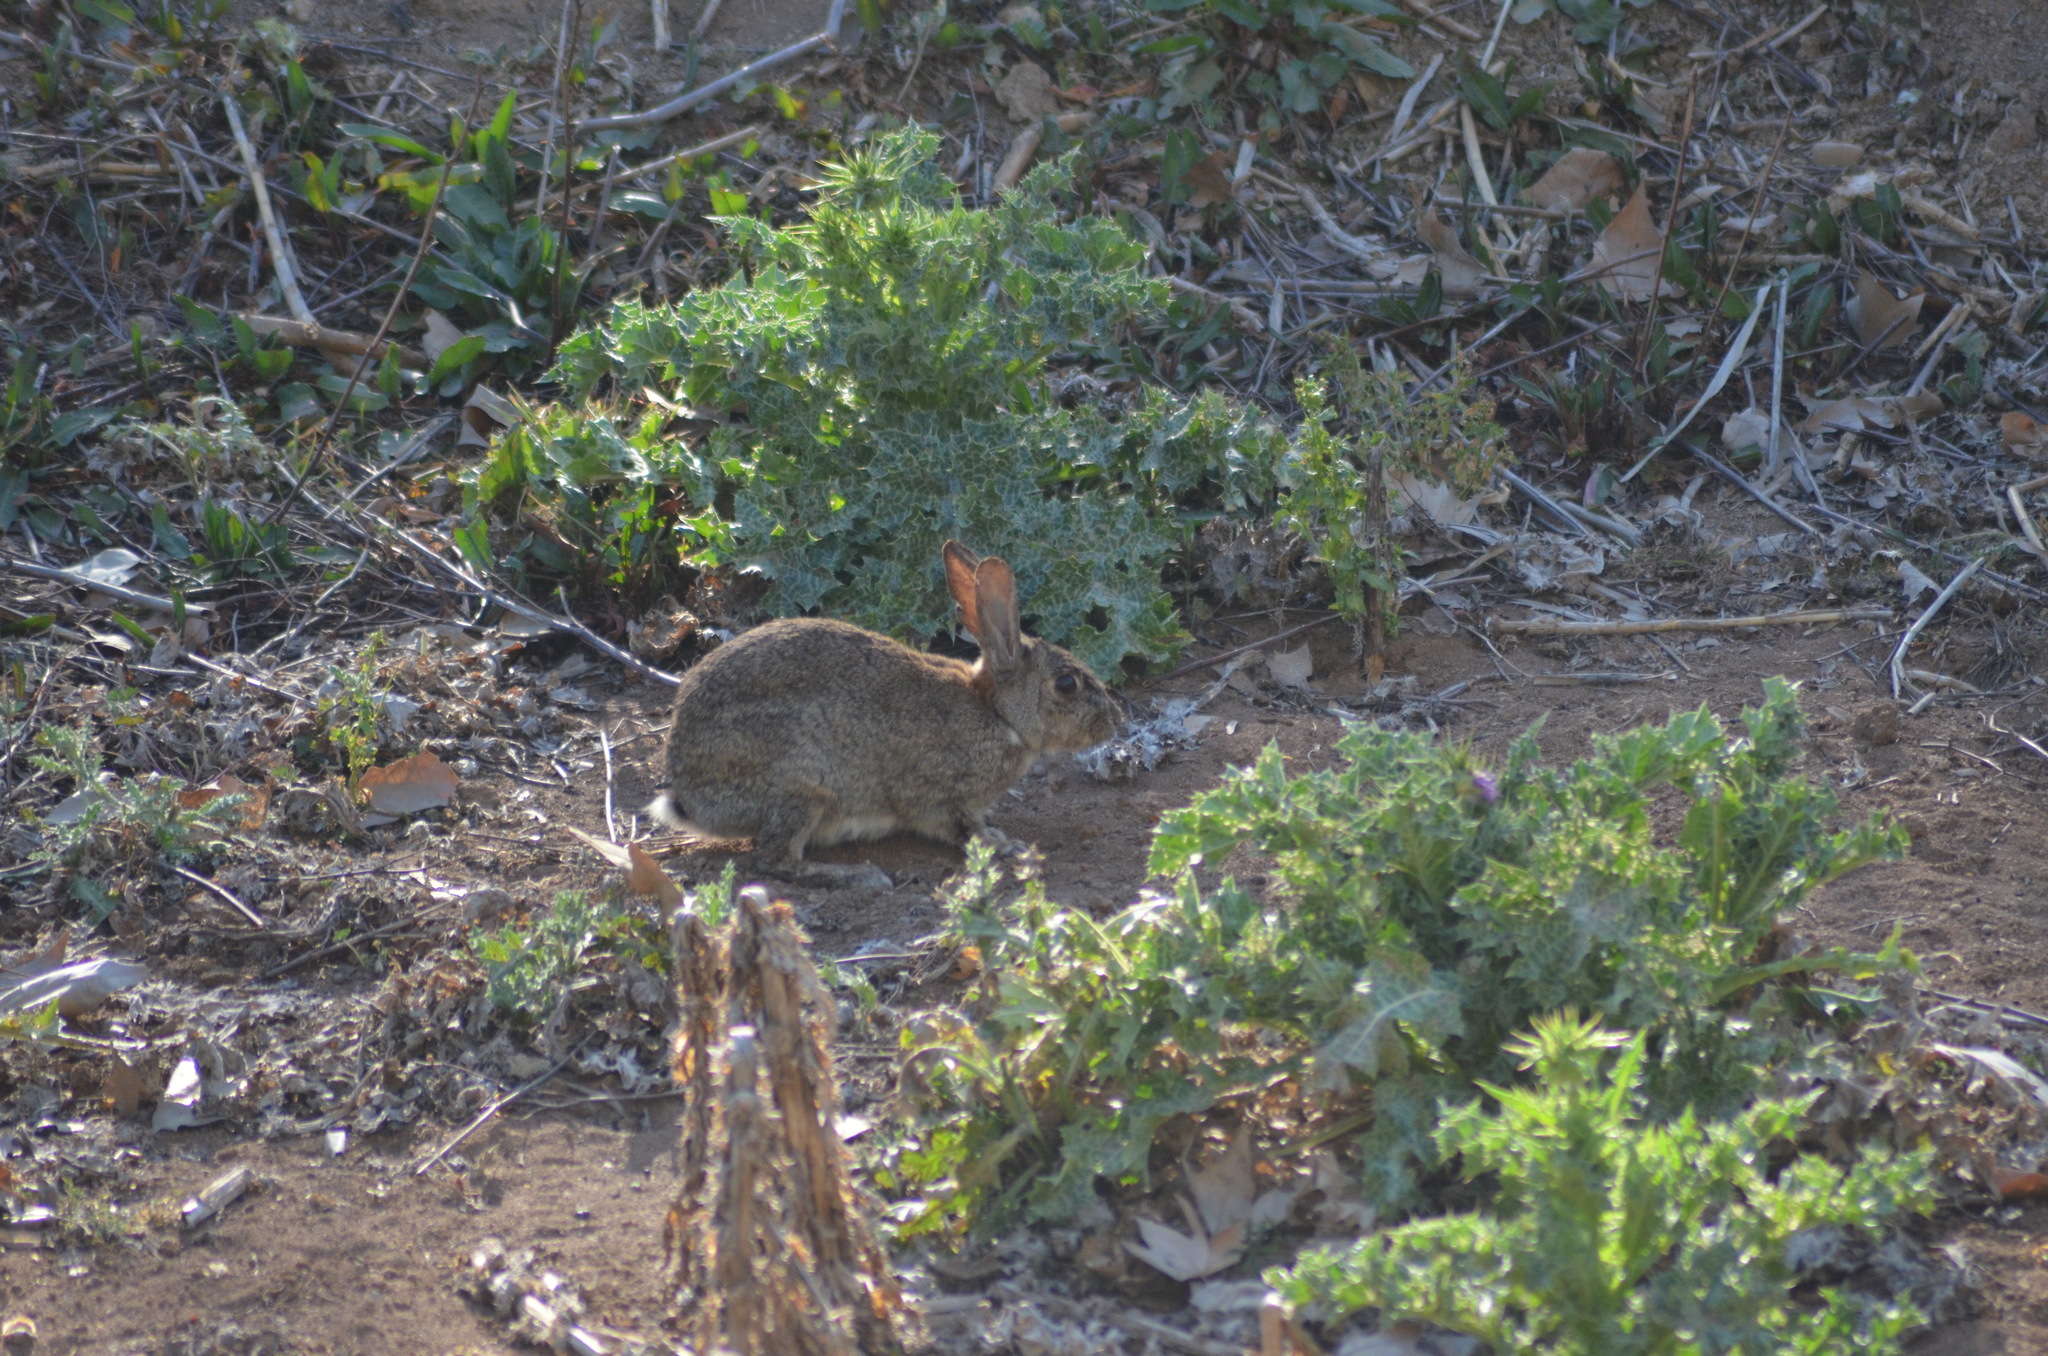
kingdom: Animalia
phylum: Chordata
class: Mammalia
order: Lagomorpha
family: Leporidae
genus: Oryctolagus
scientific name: Oryctolagus cuniculus
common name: European rabbit
